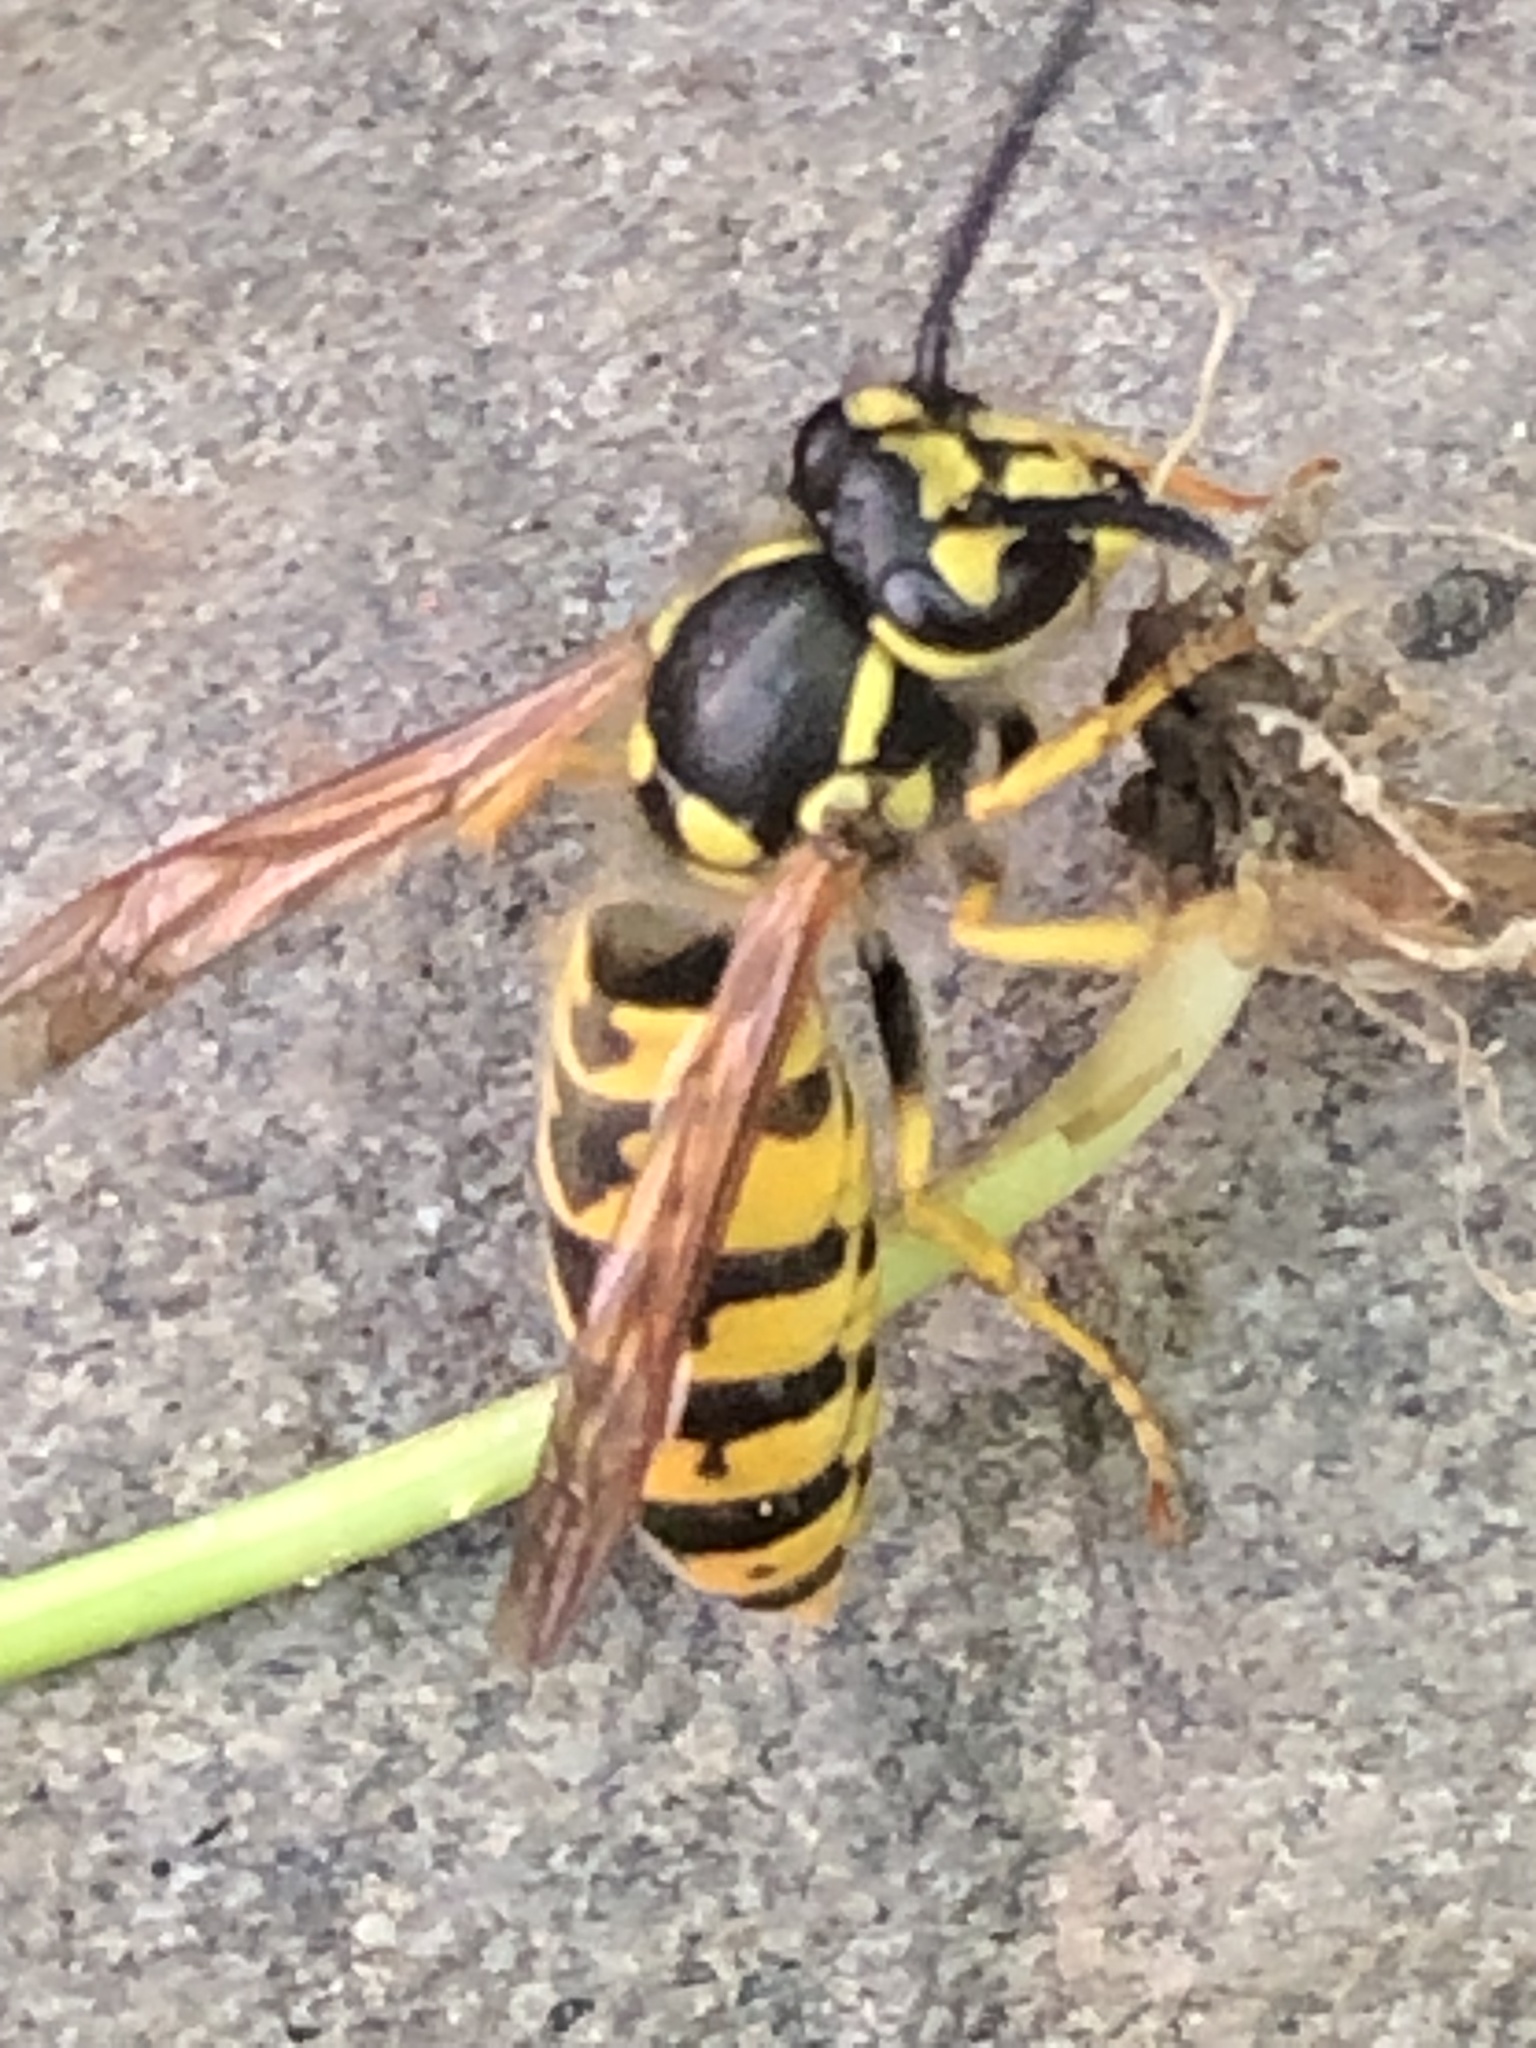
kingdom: Animalia
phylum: Arthropoda
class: Insecta
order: Hymenoptera
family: Vespidae
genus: Vespula
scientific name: Vespula germanica
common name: German wasp
